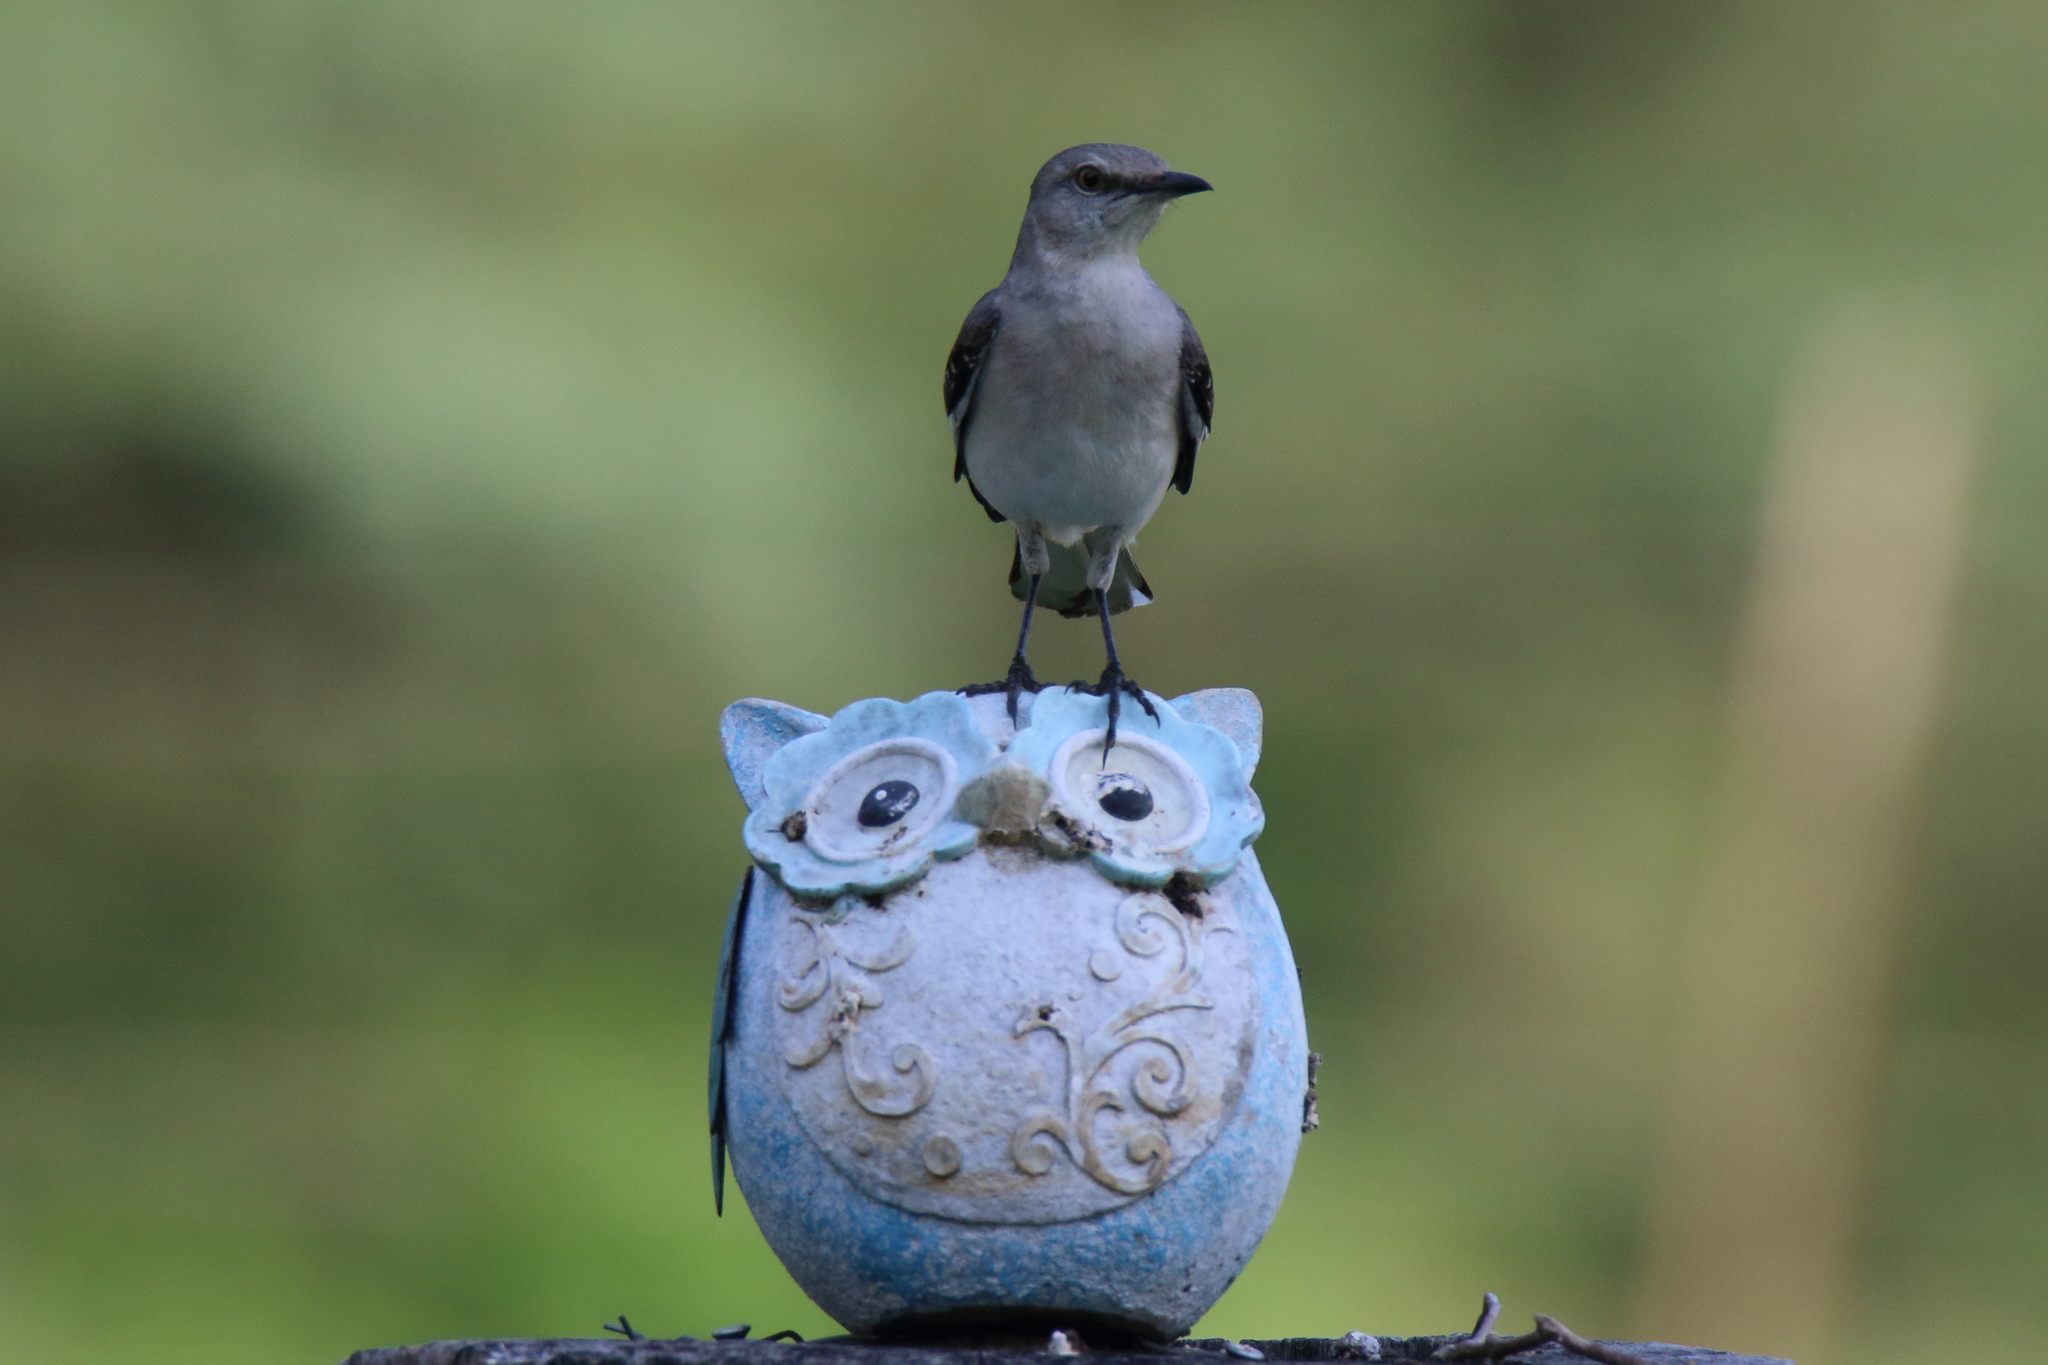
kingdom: Animalia
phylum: Chordata
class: Aves
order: Passeriformes
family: Mimidae
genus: Mimus
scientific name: Mimus polyglottos
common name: Northern mockingbird
